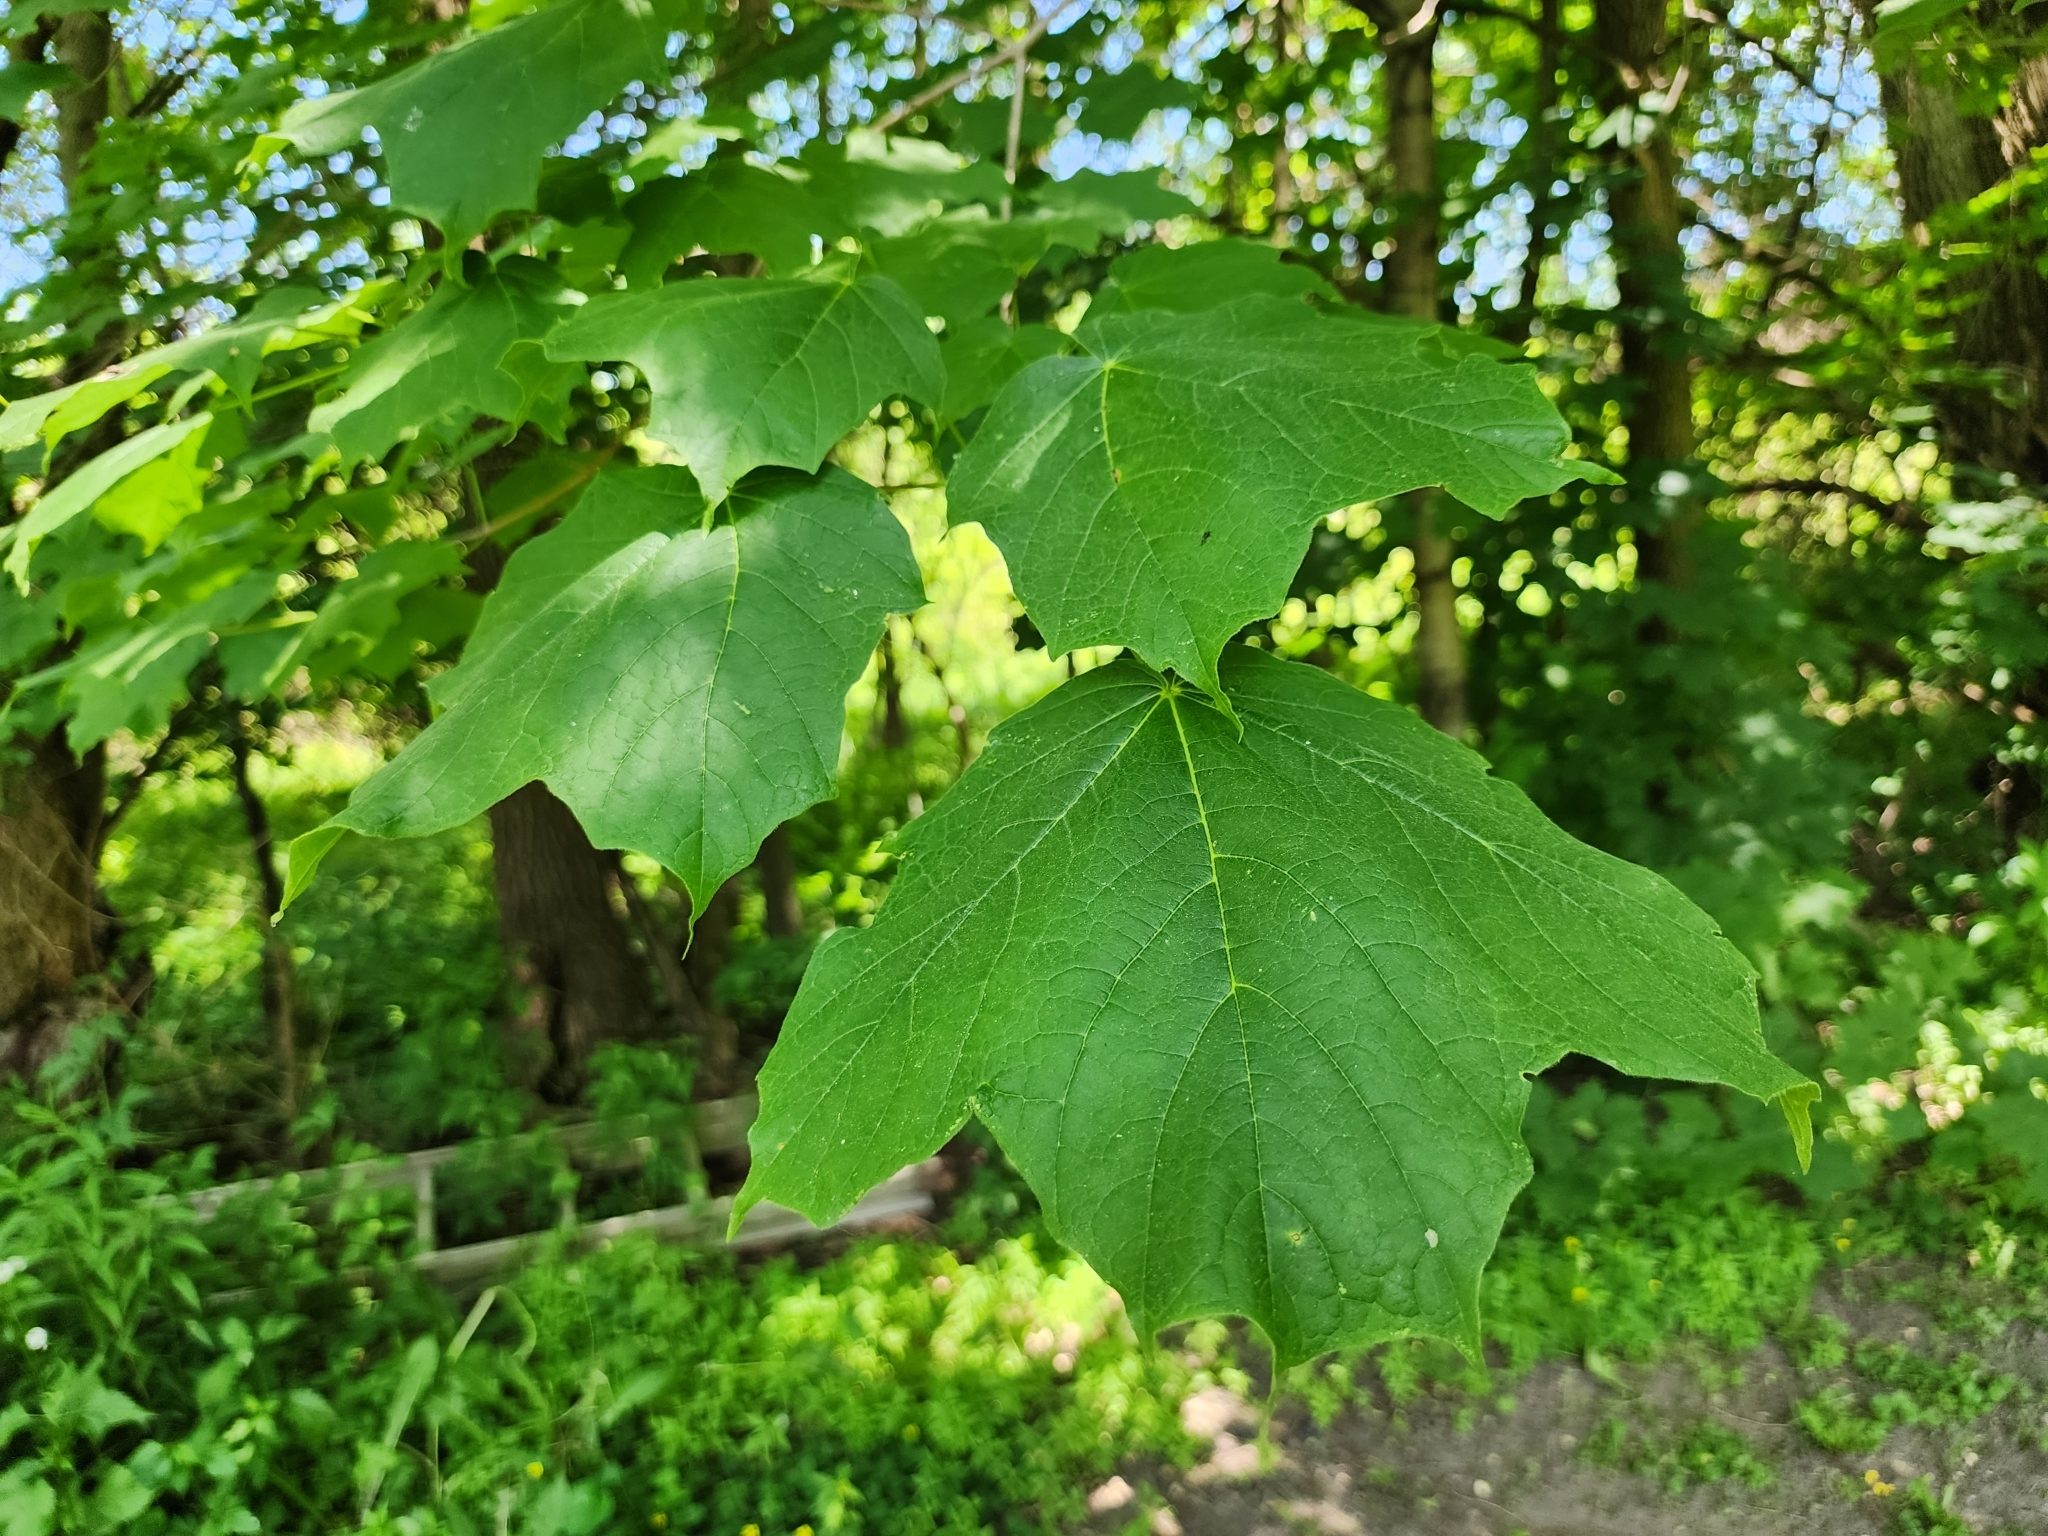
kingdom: Plantae
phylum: Tracheophyta
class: Magnoliopsida
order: Sapindales
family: Sapindaceae
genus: Acer
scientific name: Acer nigrum
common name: Black maple
